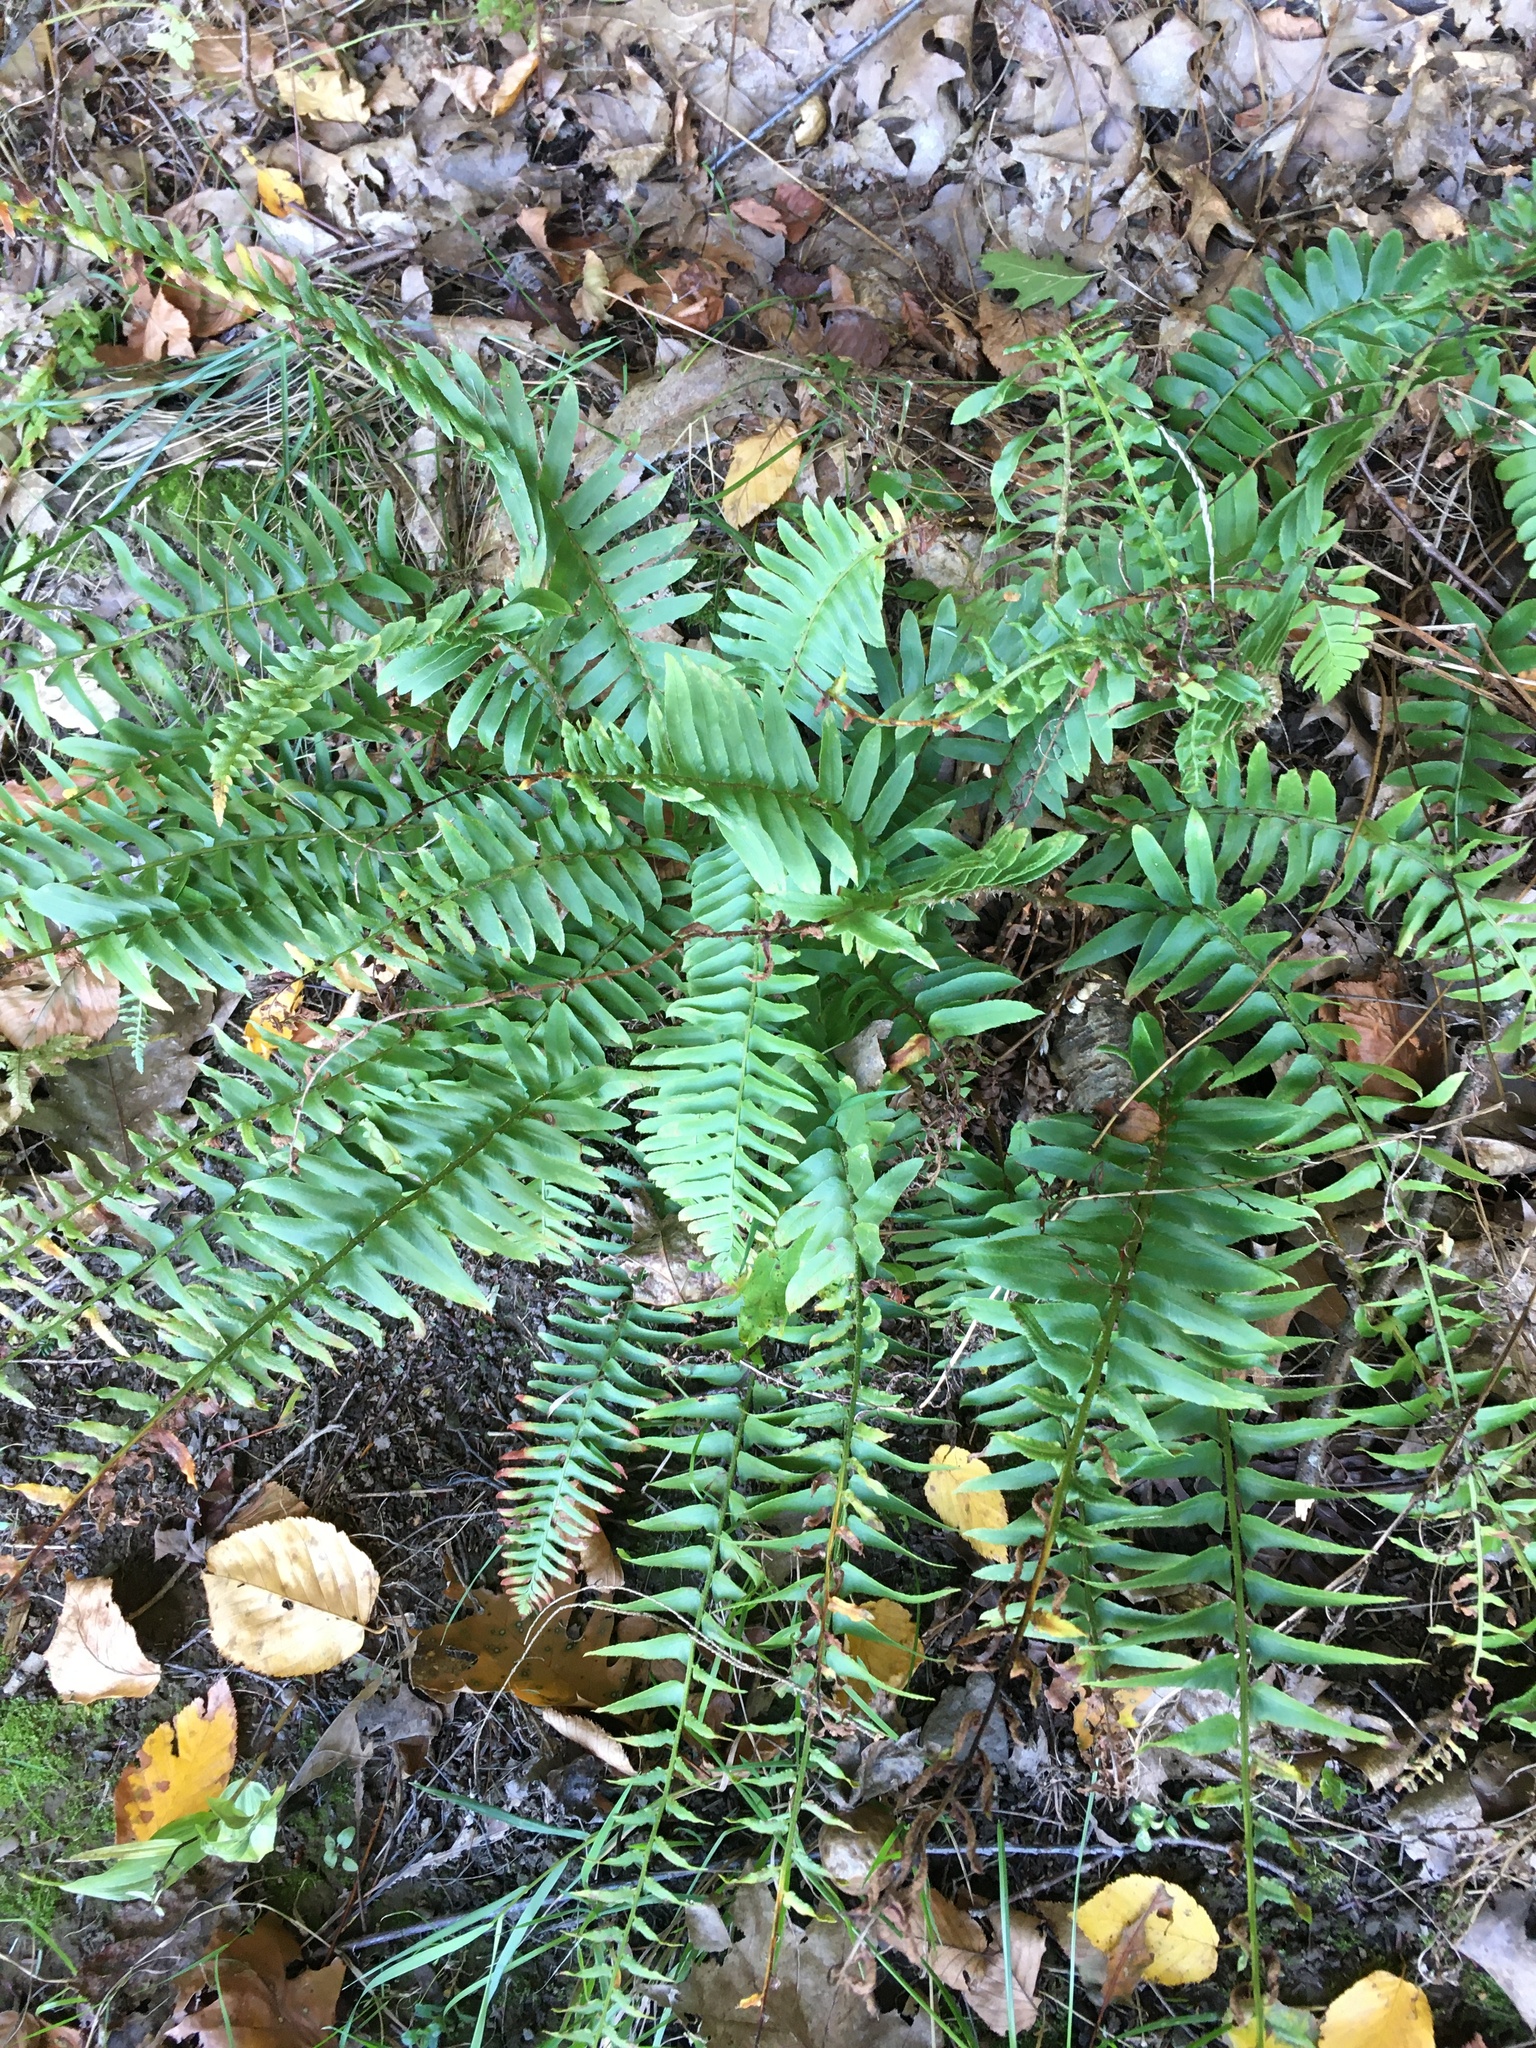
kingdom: Plantae
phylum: Tracheophyta
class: Polypodiopsida
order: Polypodiales
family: Dryopteridaceae
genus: Polystichum
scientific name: Polystichum acrostichoides
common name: Christmas fern
